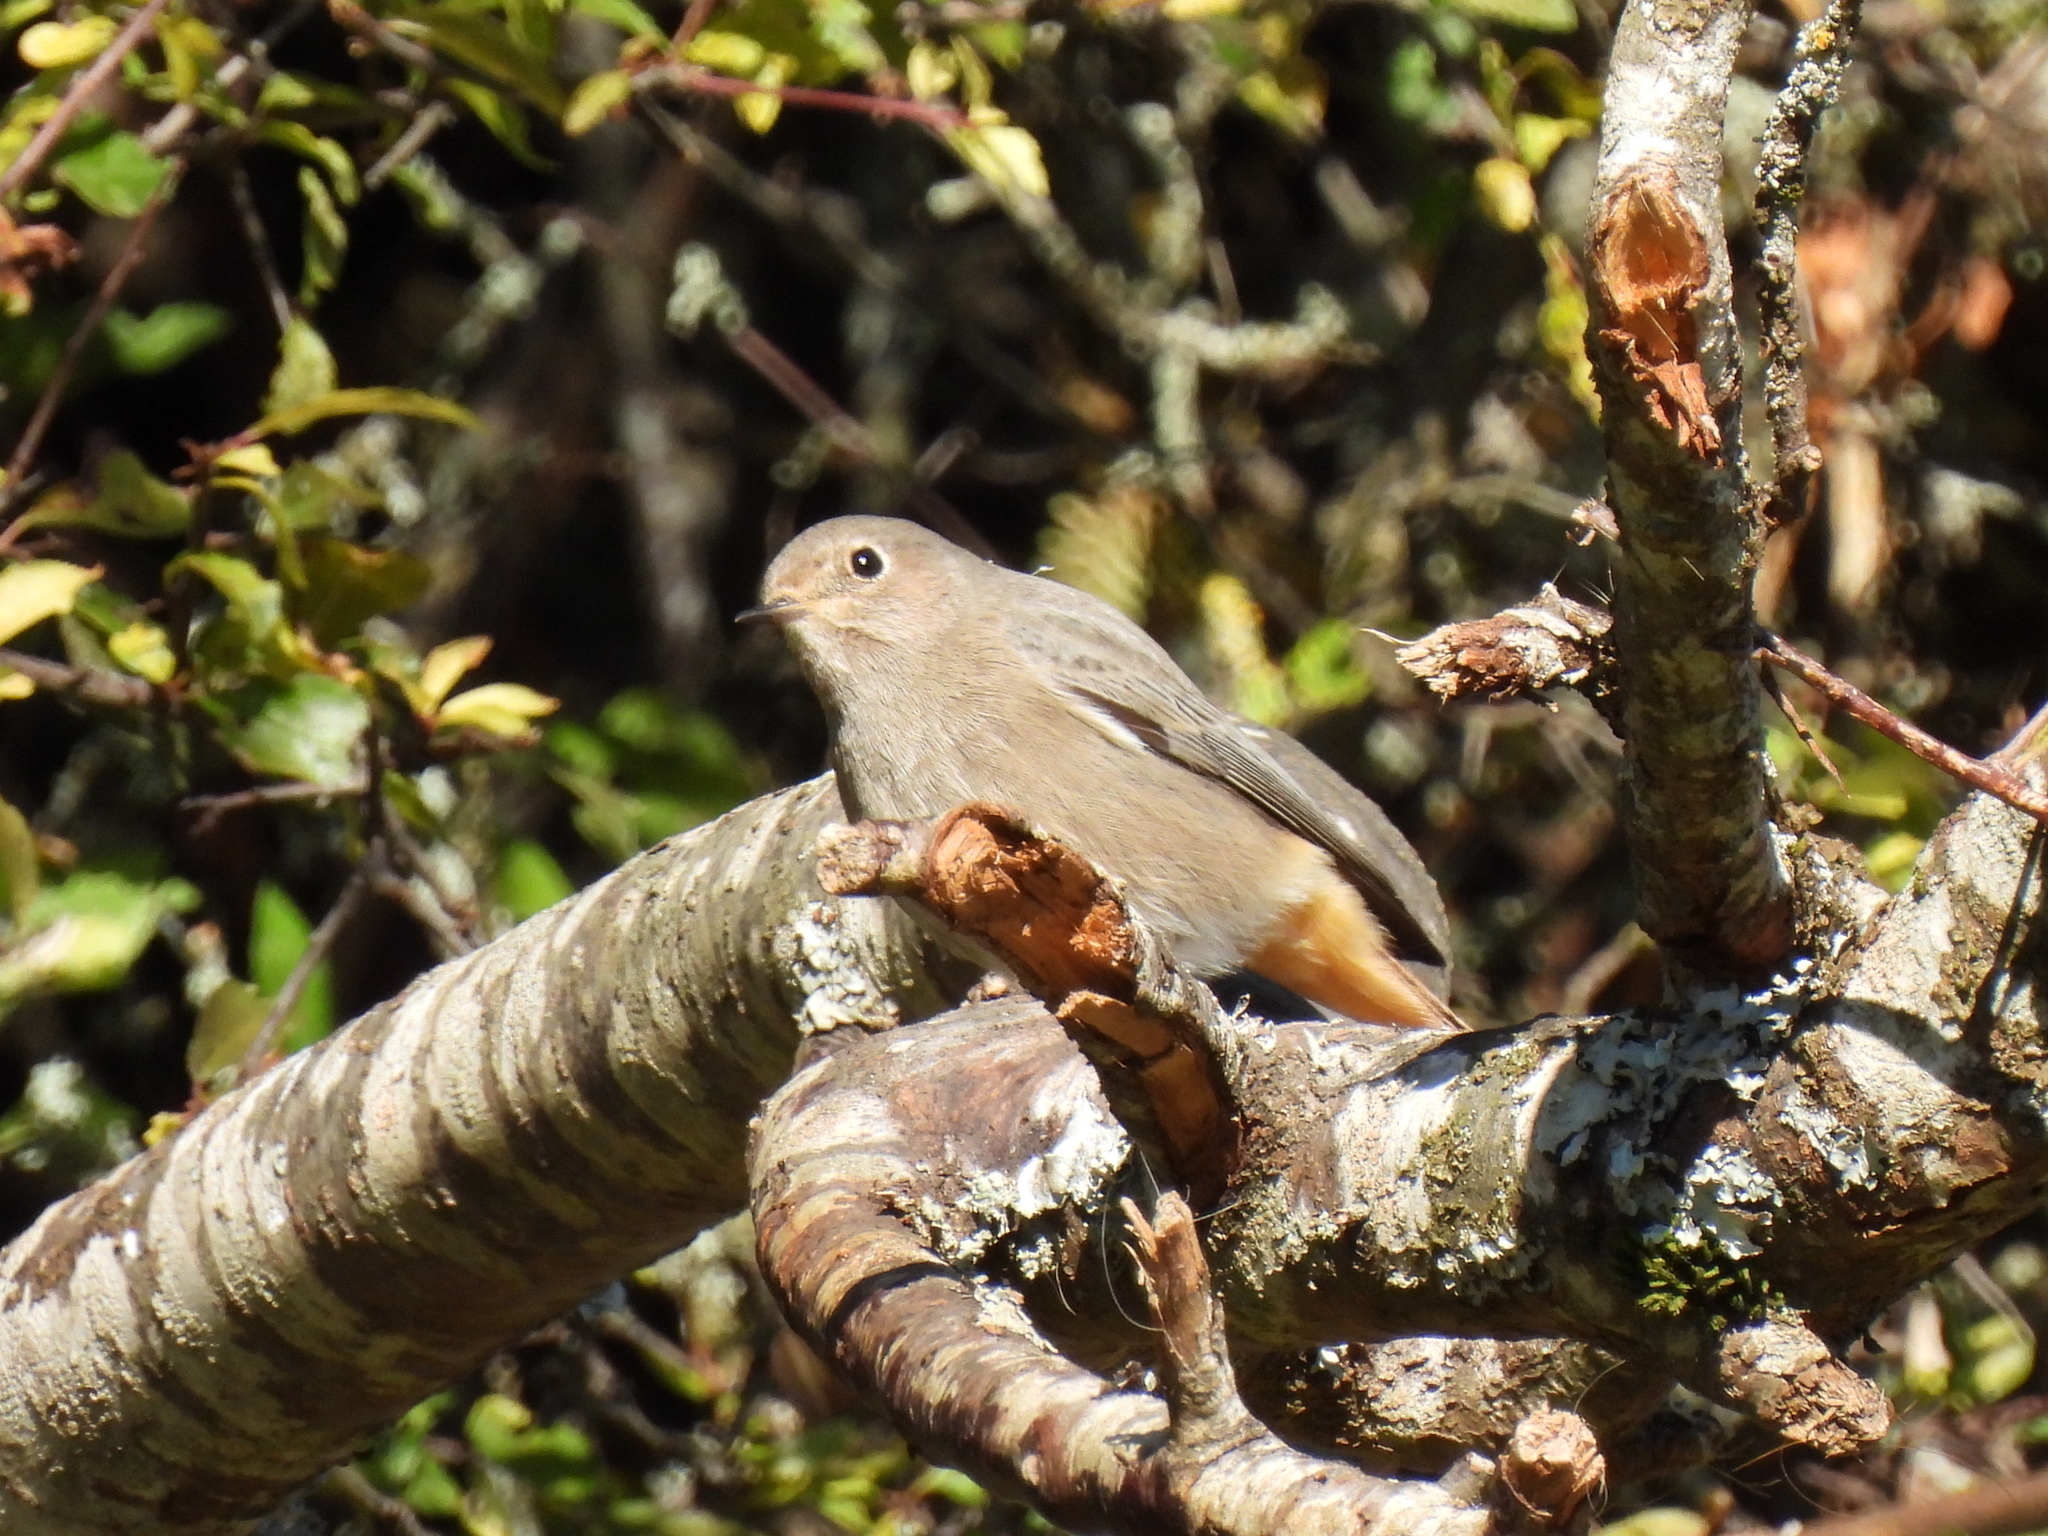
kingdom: Animalia
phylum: Chordata
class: Aves
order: Passeriformes
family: Muscicapidae
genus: Phoenicurus
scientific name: Phoenicurus phoenicurus
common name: Common redstart
